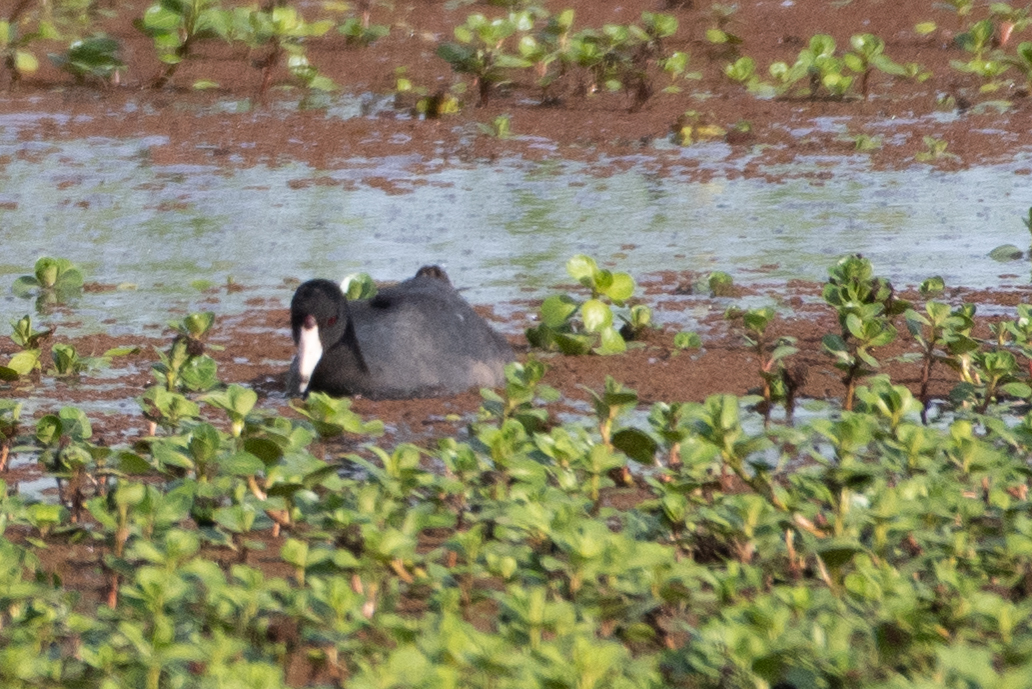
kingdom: Animalia
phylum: Chordata
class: Aves
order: Gruiformes
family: Rallidae
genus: Fulica
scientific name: Fulica americana
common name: American coot
